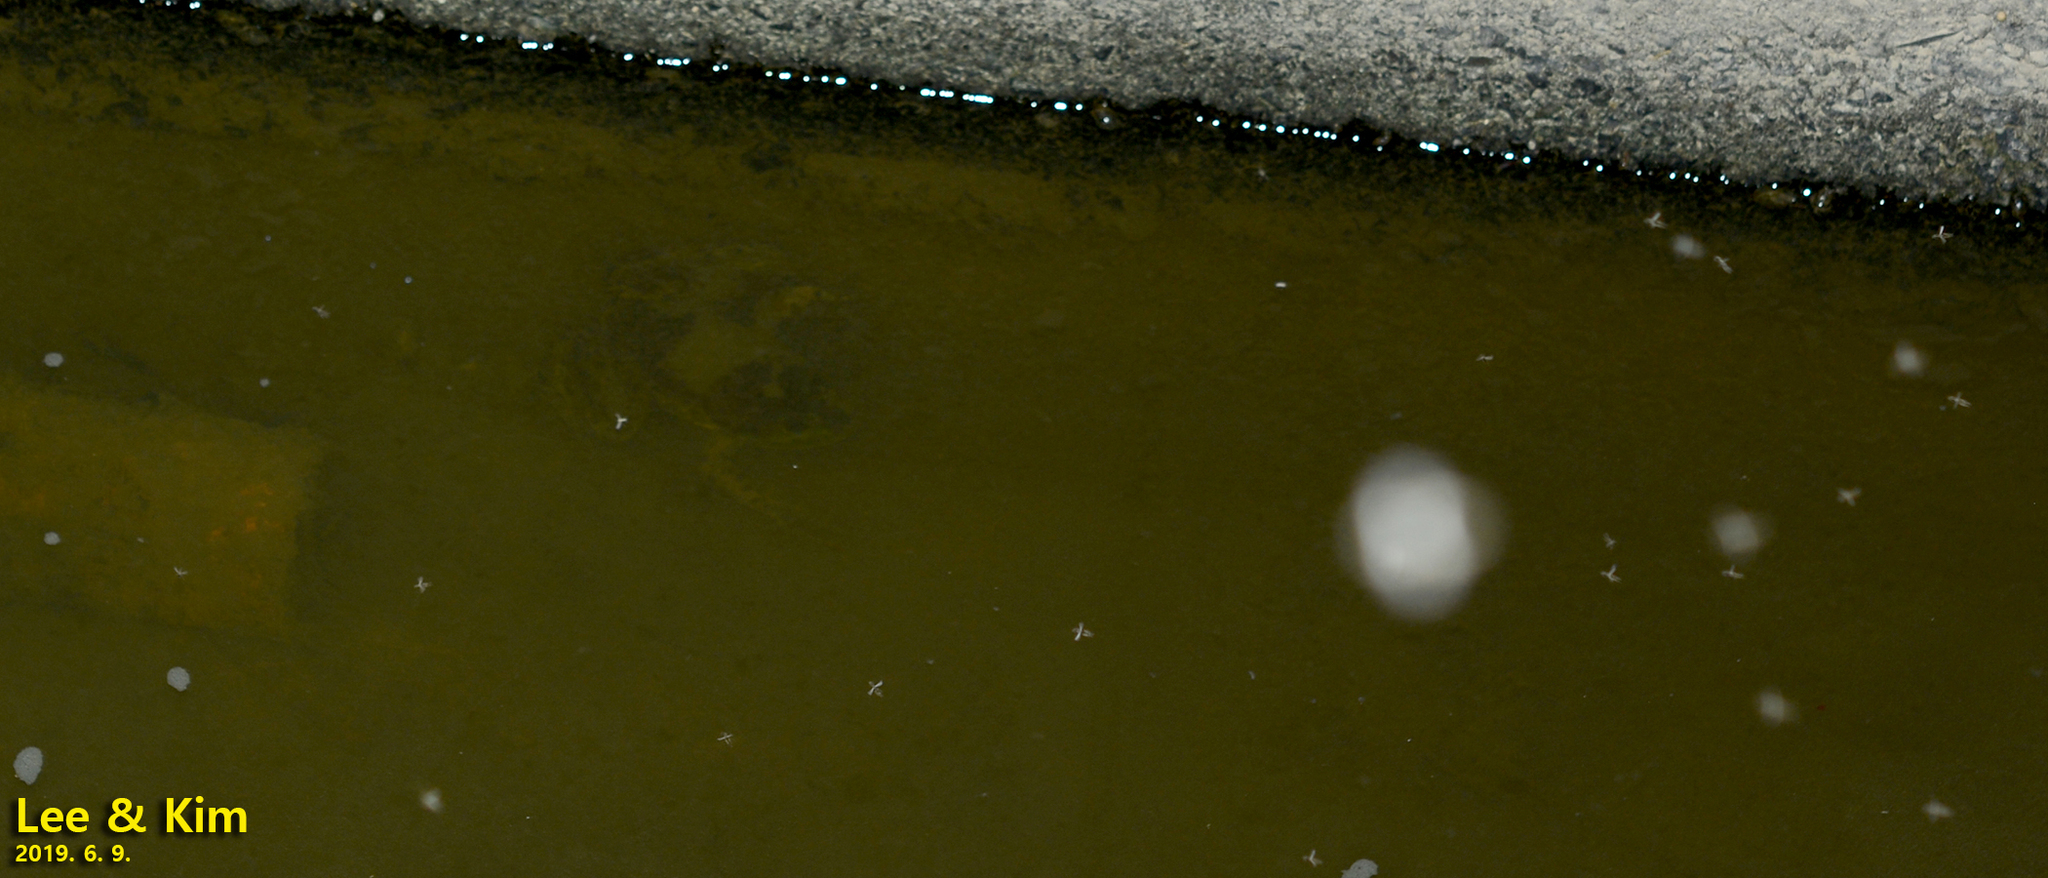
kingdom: Animalia
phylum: Chordata
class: Amphibia
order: Anura
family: Ranidae
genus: Lithobates
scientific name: Lithobates catesbeianus
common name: American bullfrog
